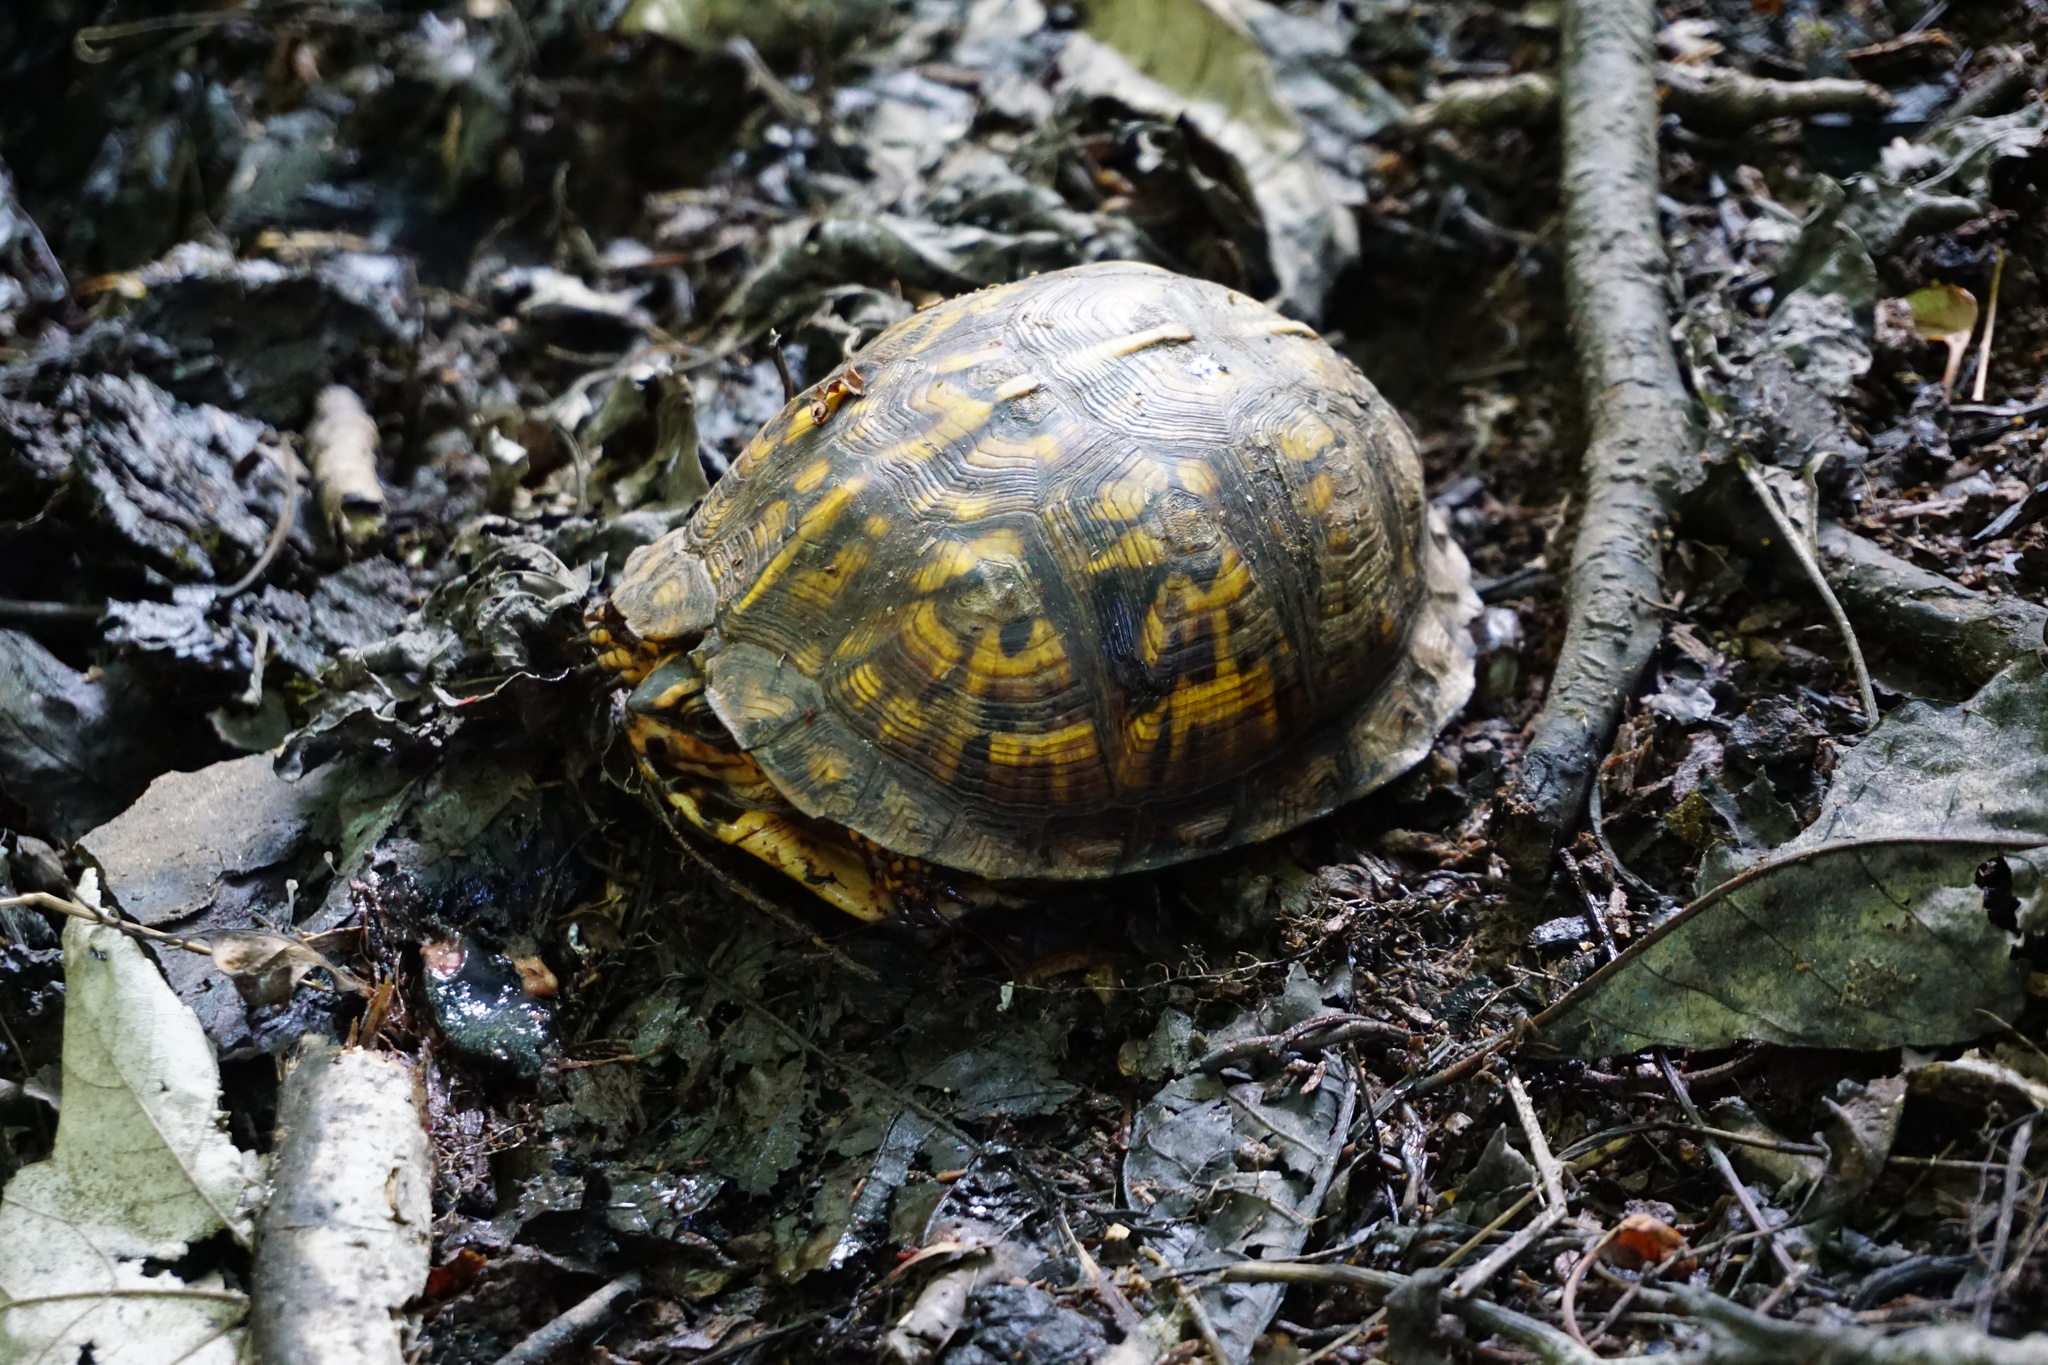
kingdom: Animalia
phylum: Chordata
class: Testudines
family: Emydidae
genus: Terrapene
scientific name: Terrapene carolina
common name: Common box turtle
